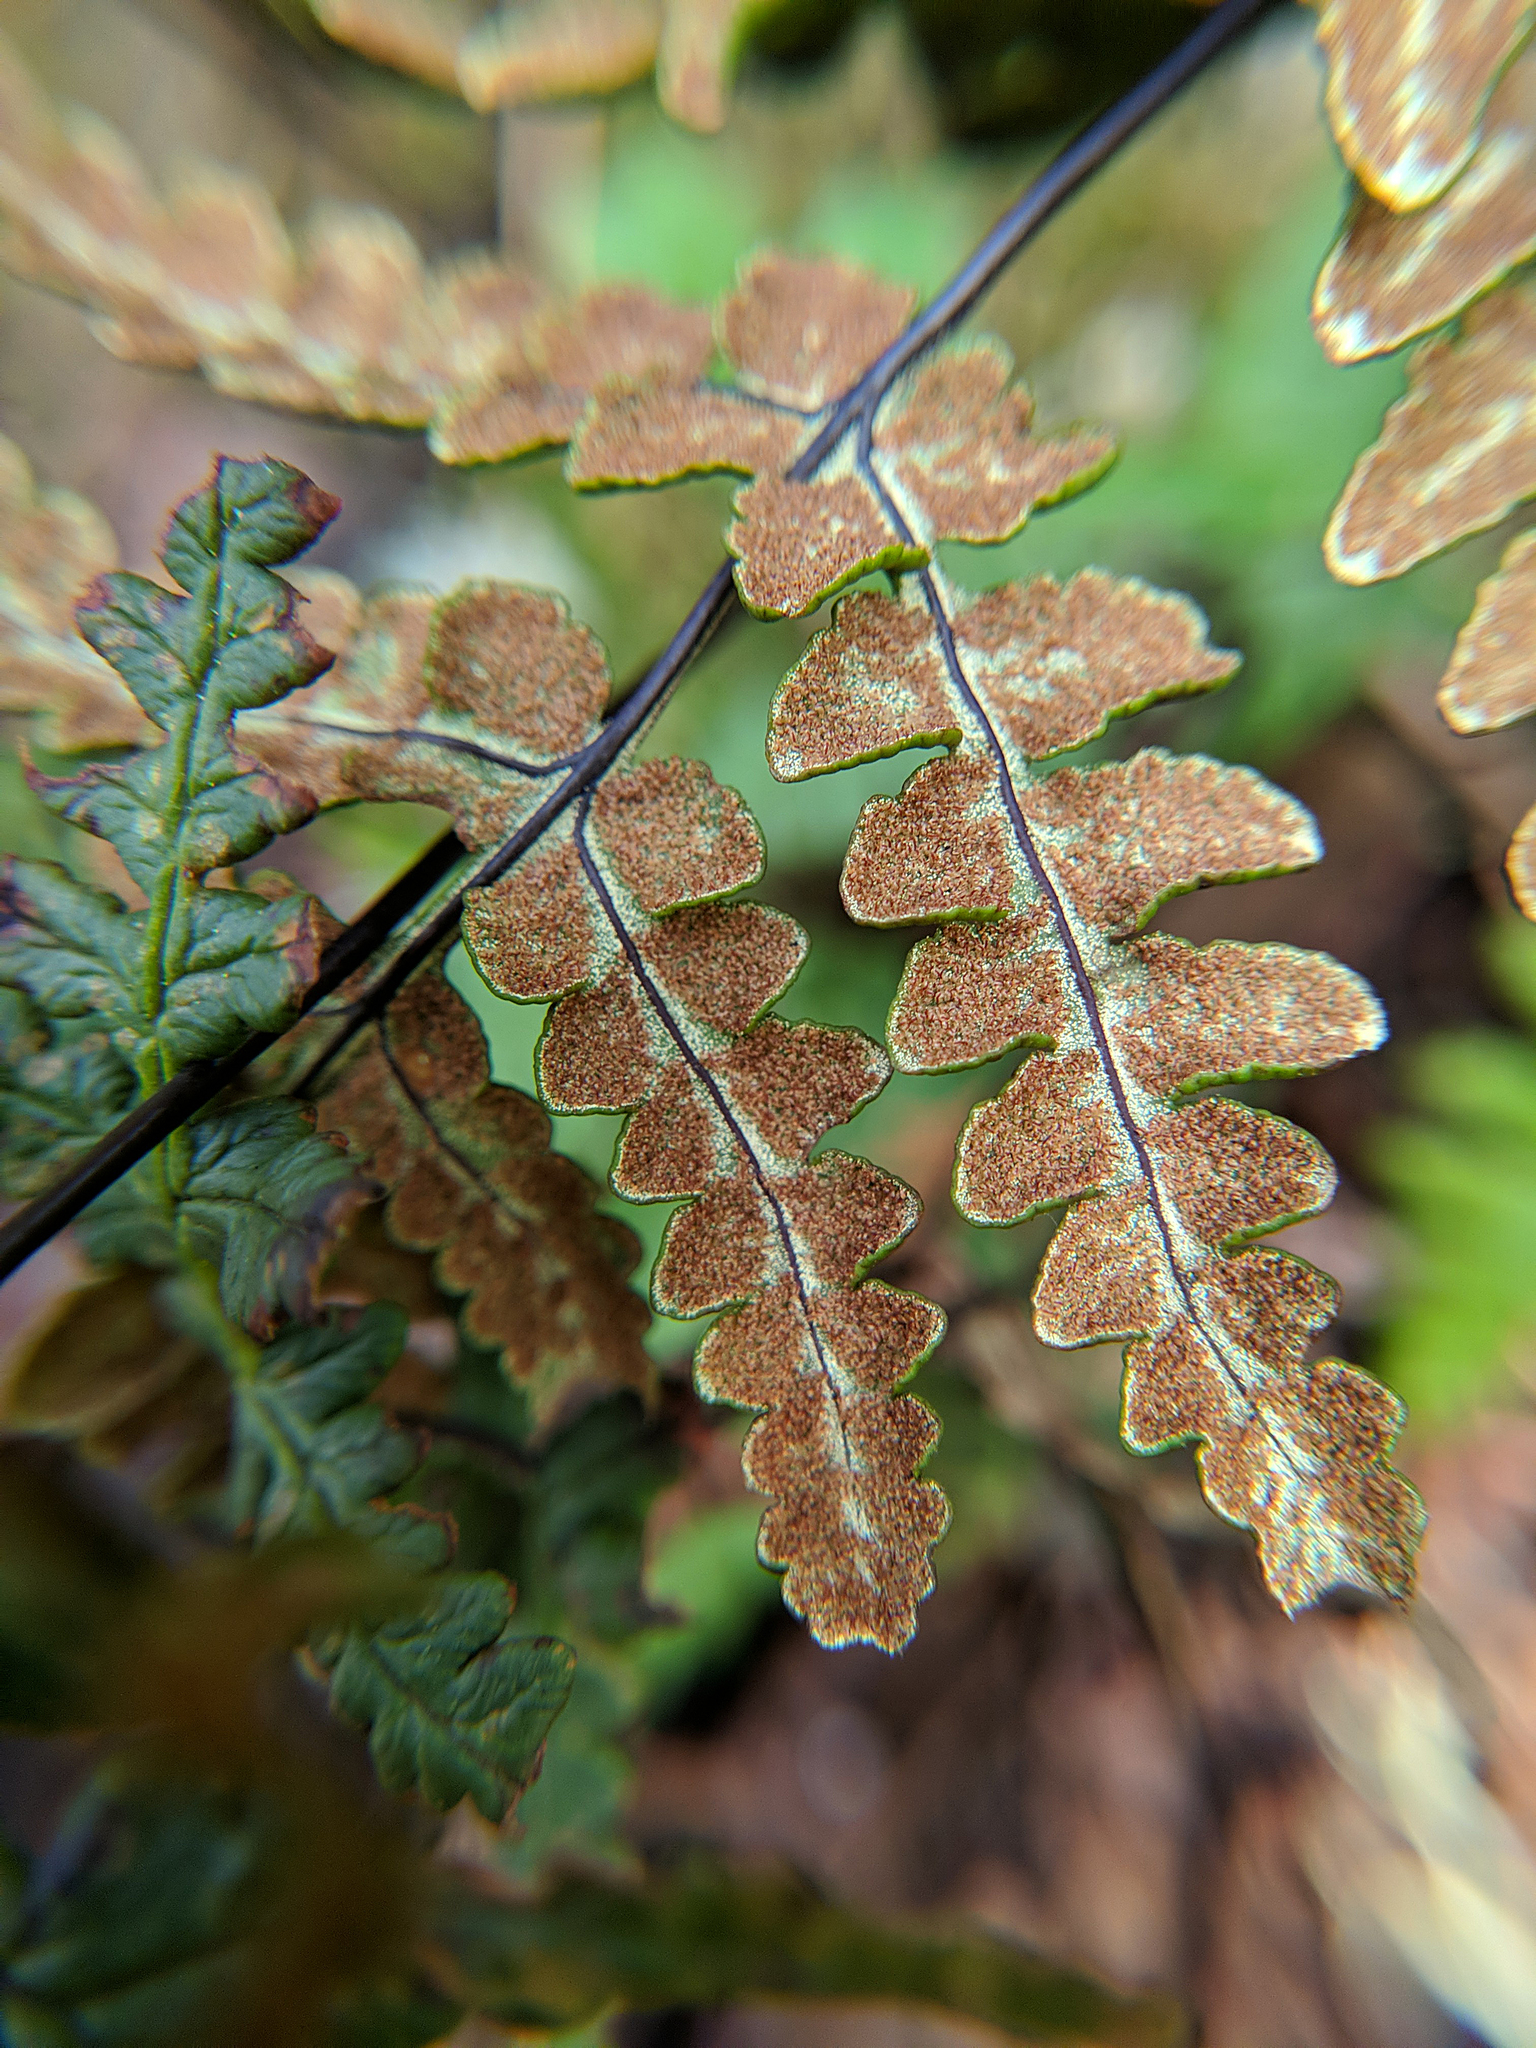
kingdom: Plantae
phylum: Tracheophyta
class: Polypodiopsida
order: Polypodiales
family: Pteridaceae
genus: Pentagramma
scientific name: Pentagramma triangularis
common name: Gold fern
